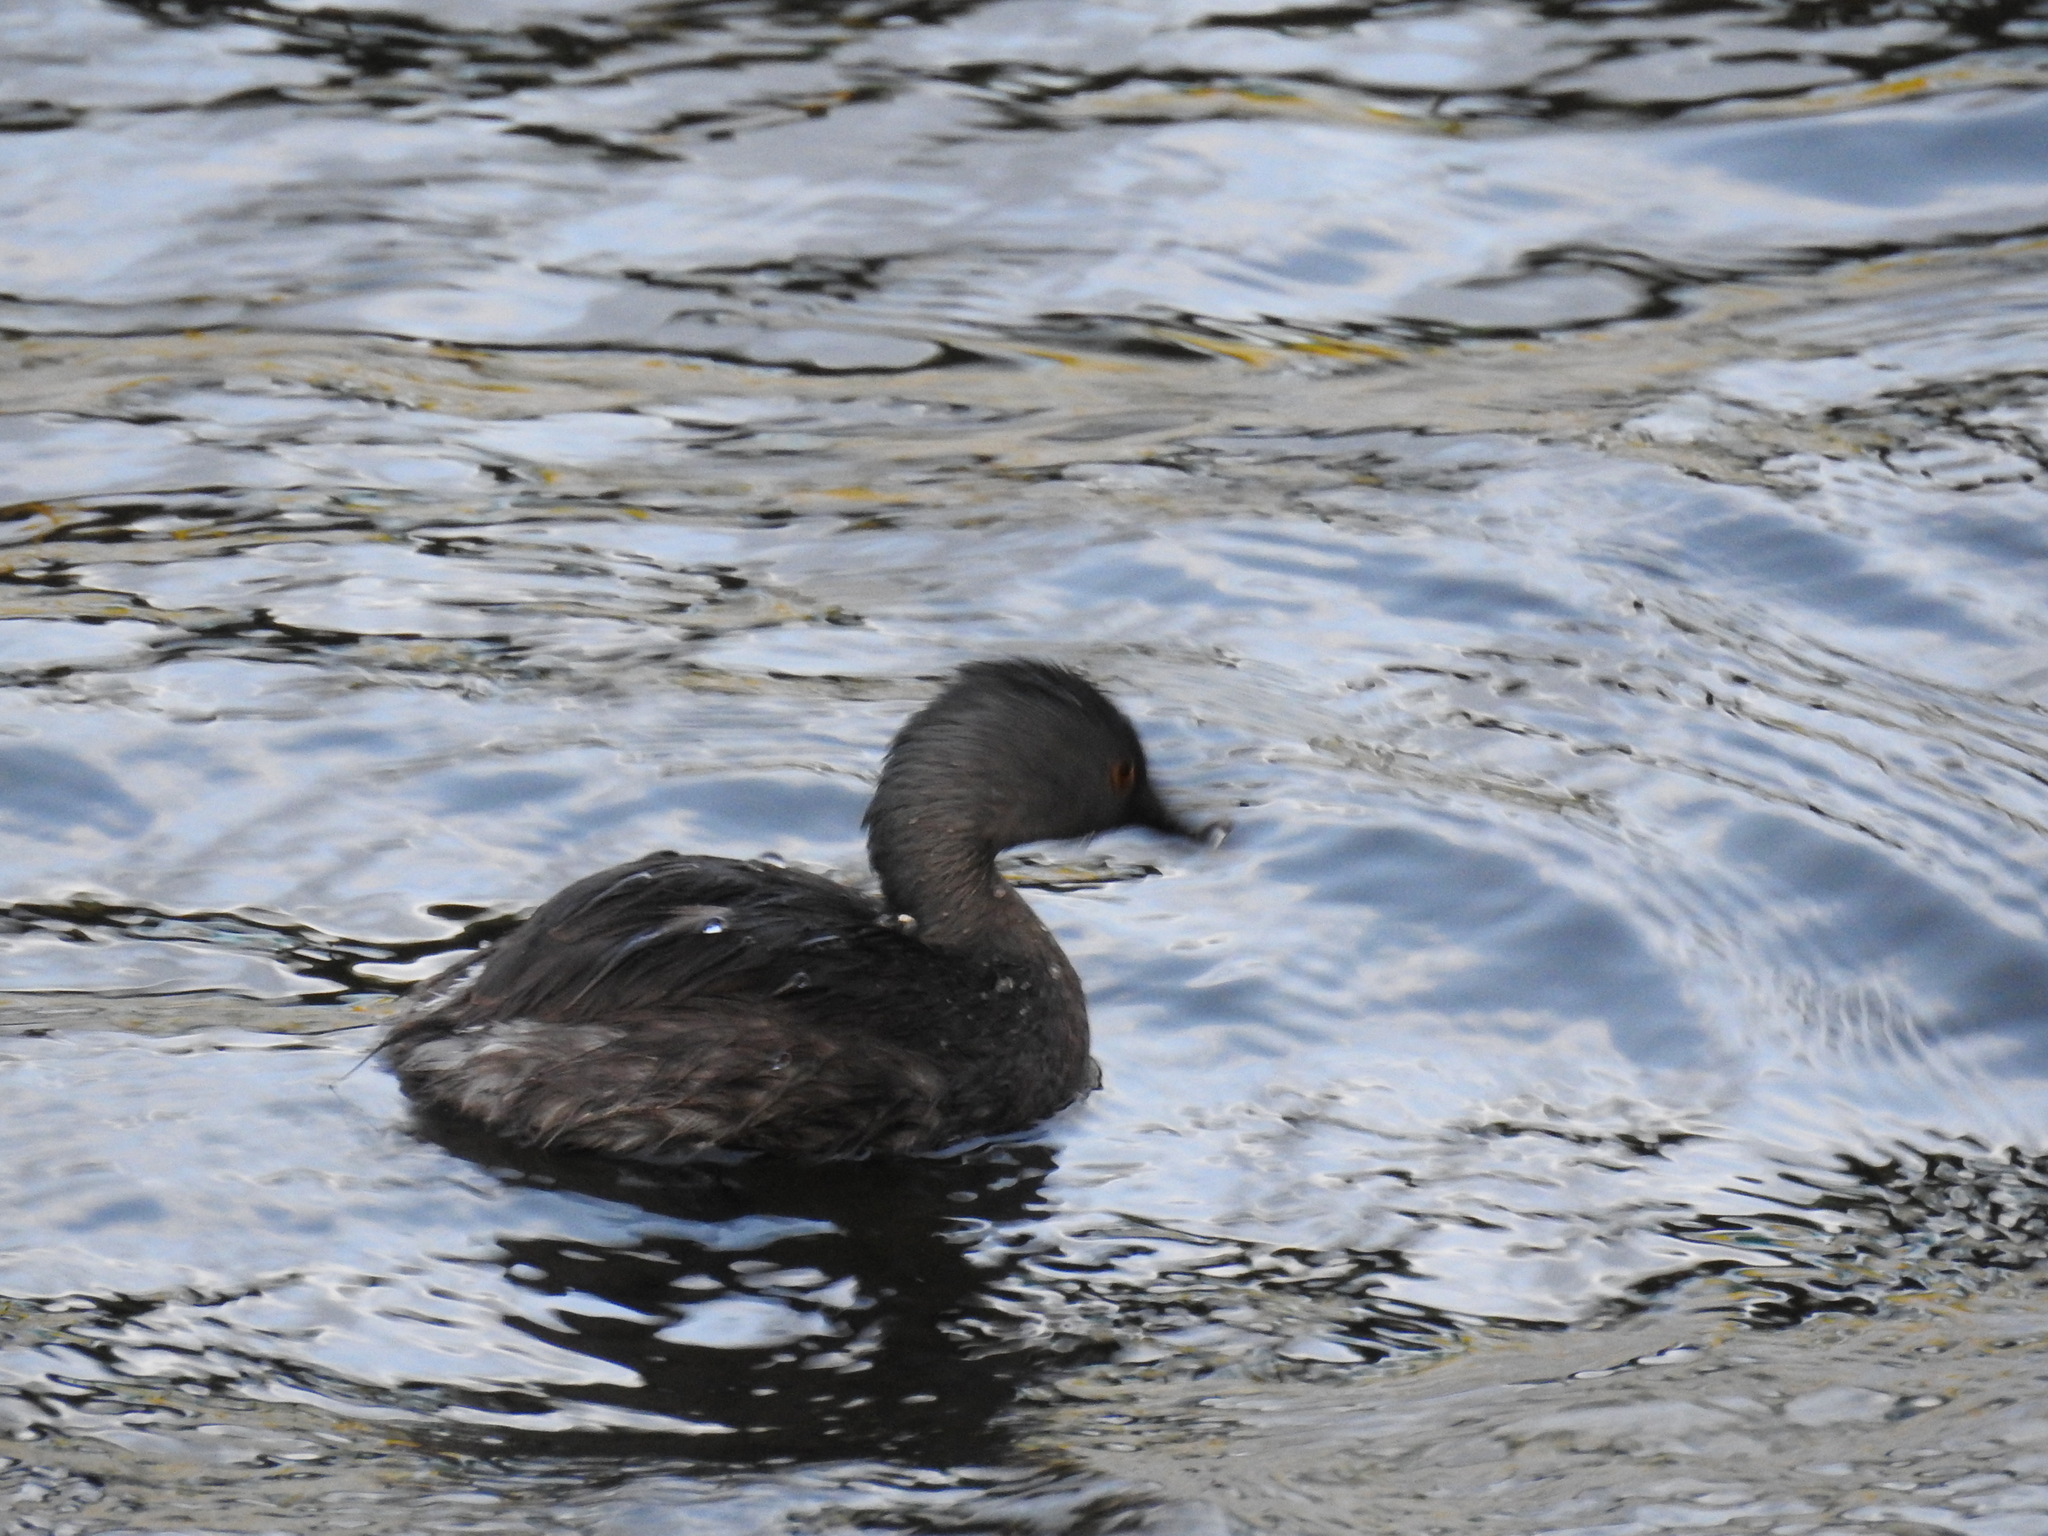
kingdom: Animalia
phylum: Chordata
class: Aves
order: Podicipediformes
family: Podicipedidae
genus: Tachybaptus
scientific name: Tachybaptus dominicus
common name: Least grebe
